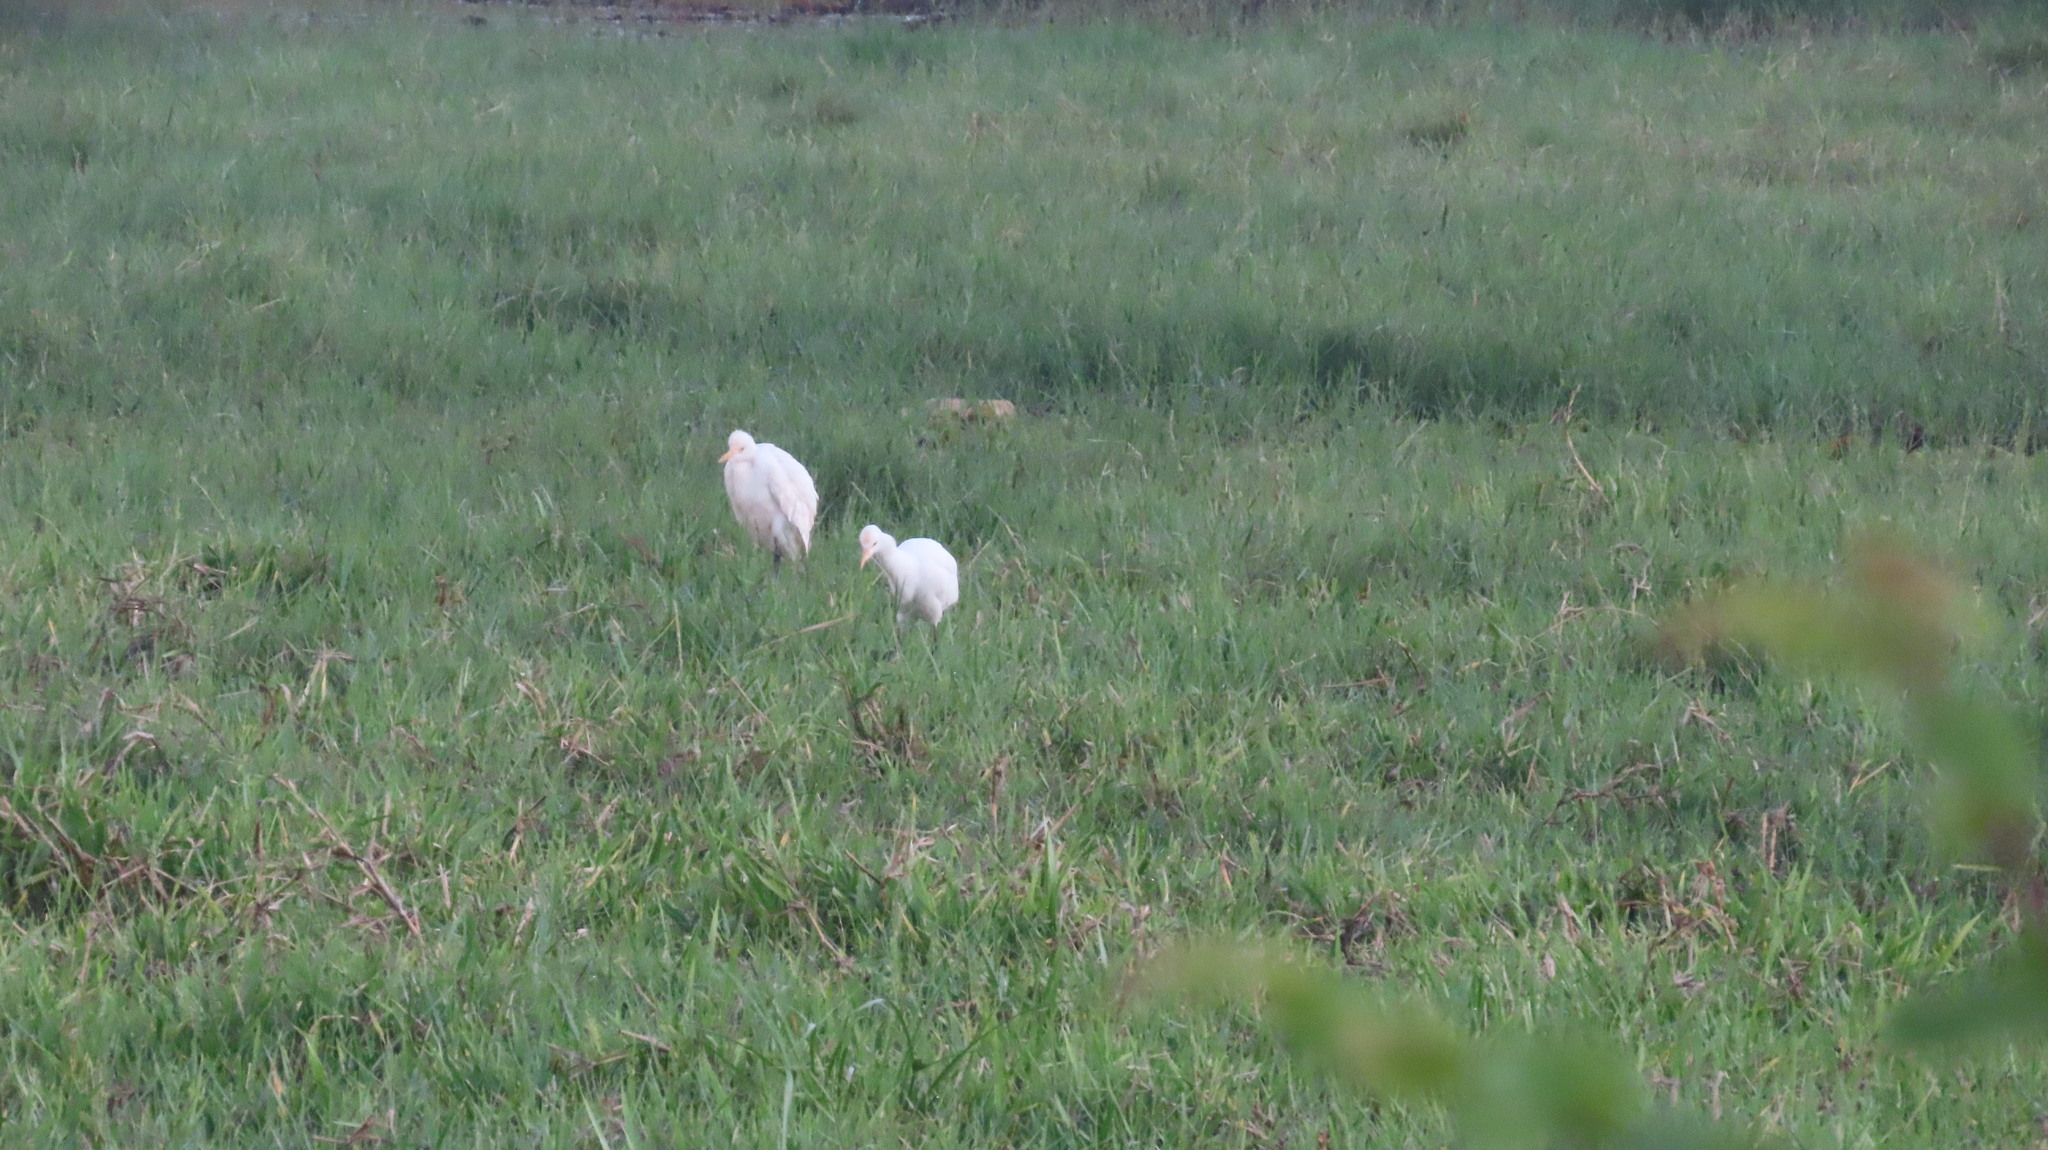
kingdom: Animalia
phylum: Chordata
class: Aves
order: Pelecaniformes
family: Ardeidae
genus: Bubulcus
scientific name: Bubulcus coromandus
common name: Eastern cattle egret
